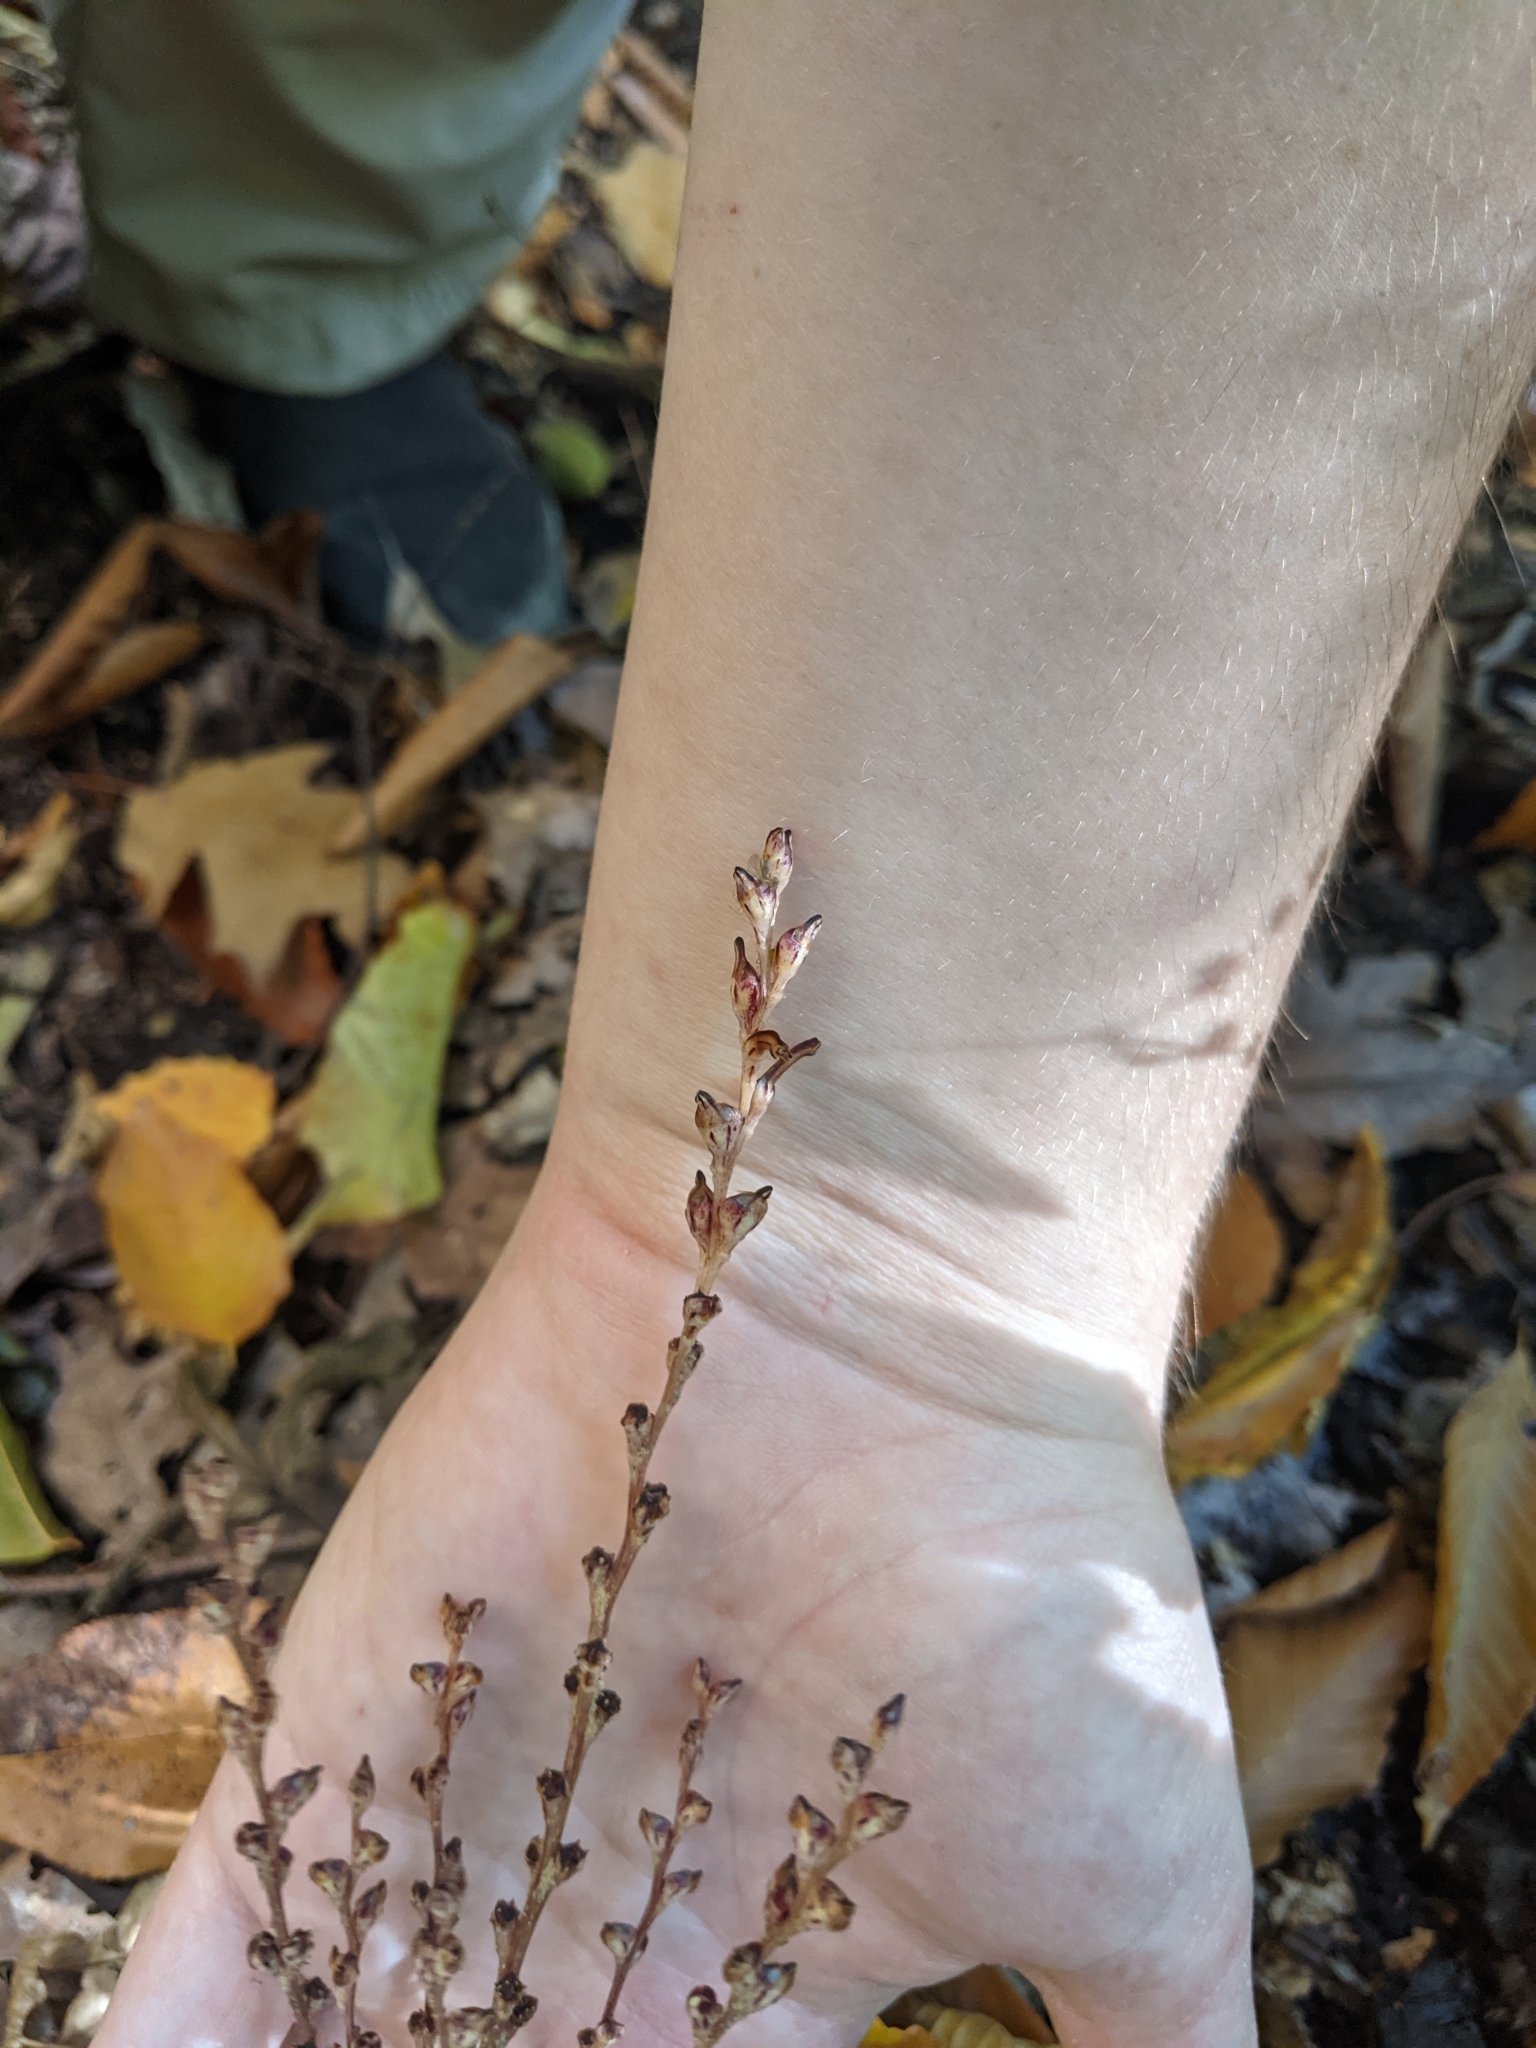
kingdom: Plantae
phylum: Tracheophyta
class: Magnoliopsida
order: Lamiales
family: Orobanchaceae
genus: Epifagus
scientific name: Epifagus virginiana
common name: Beechdrops
